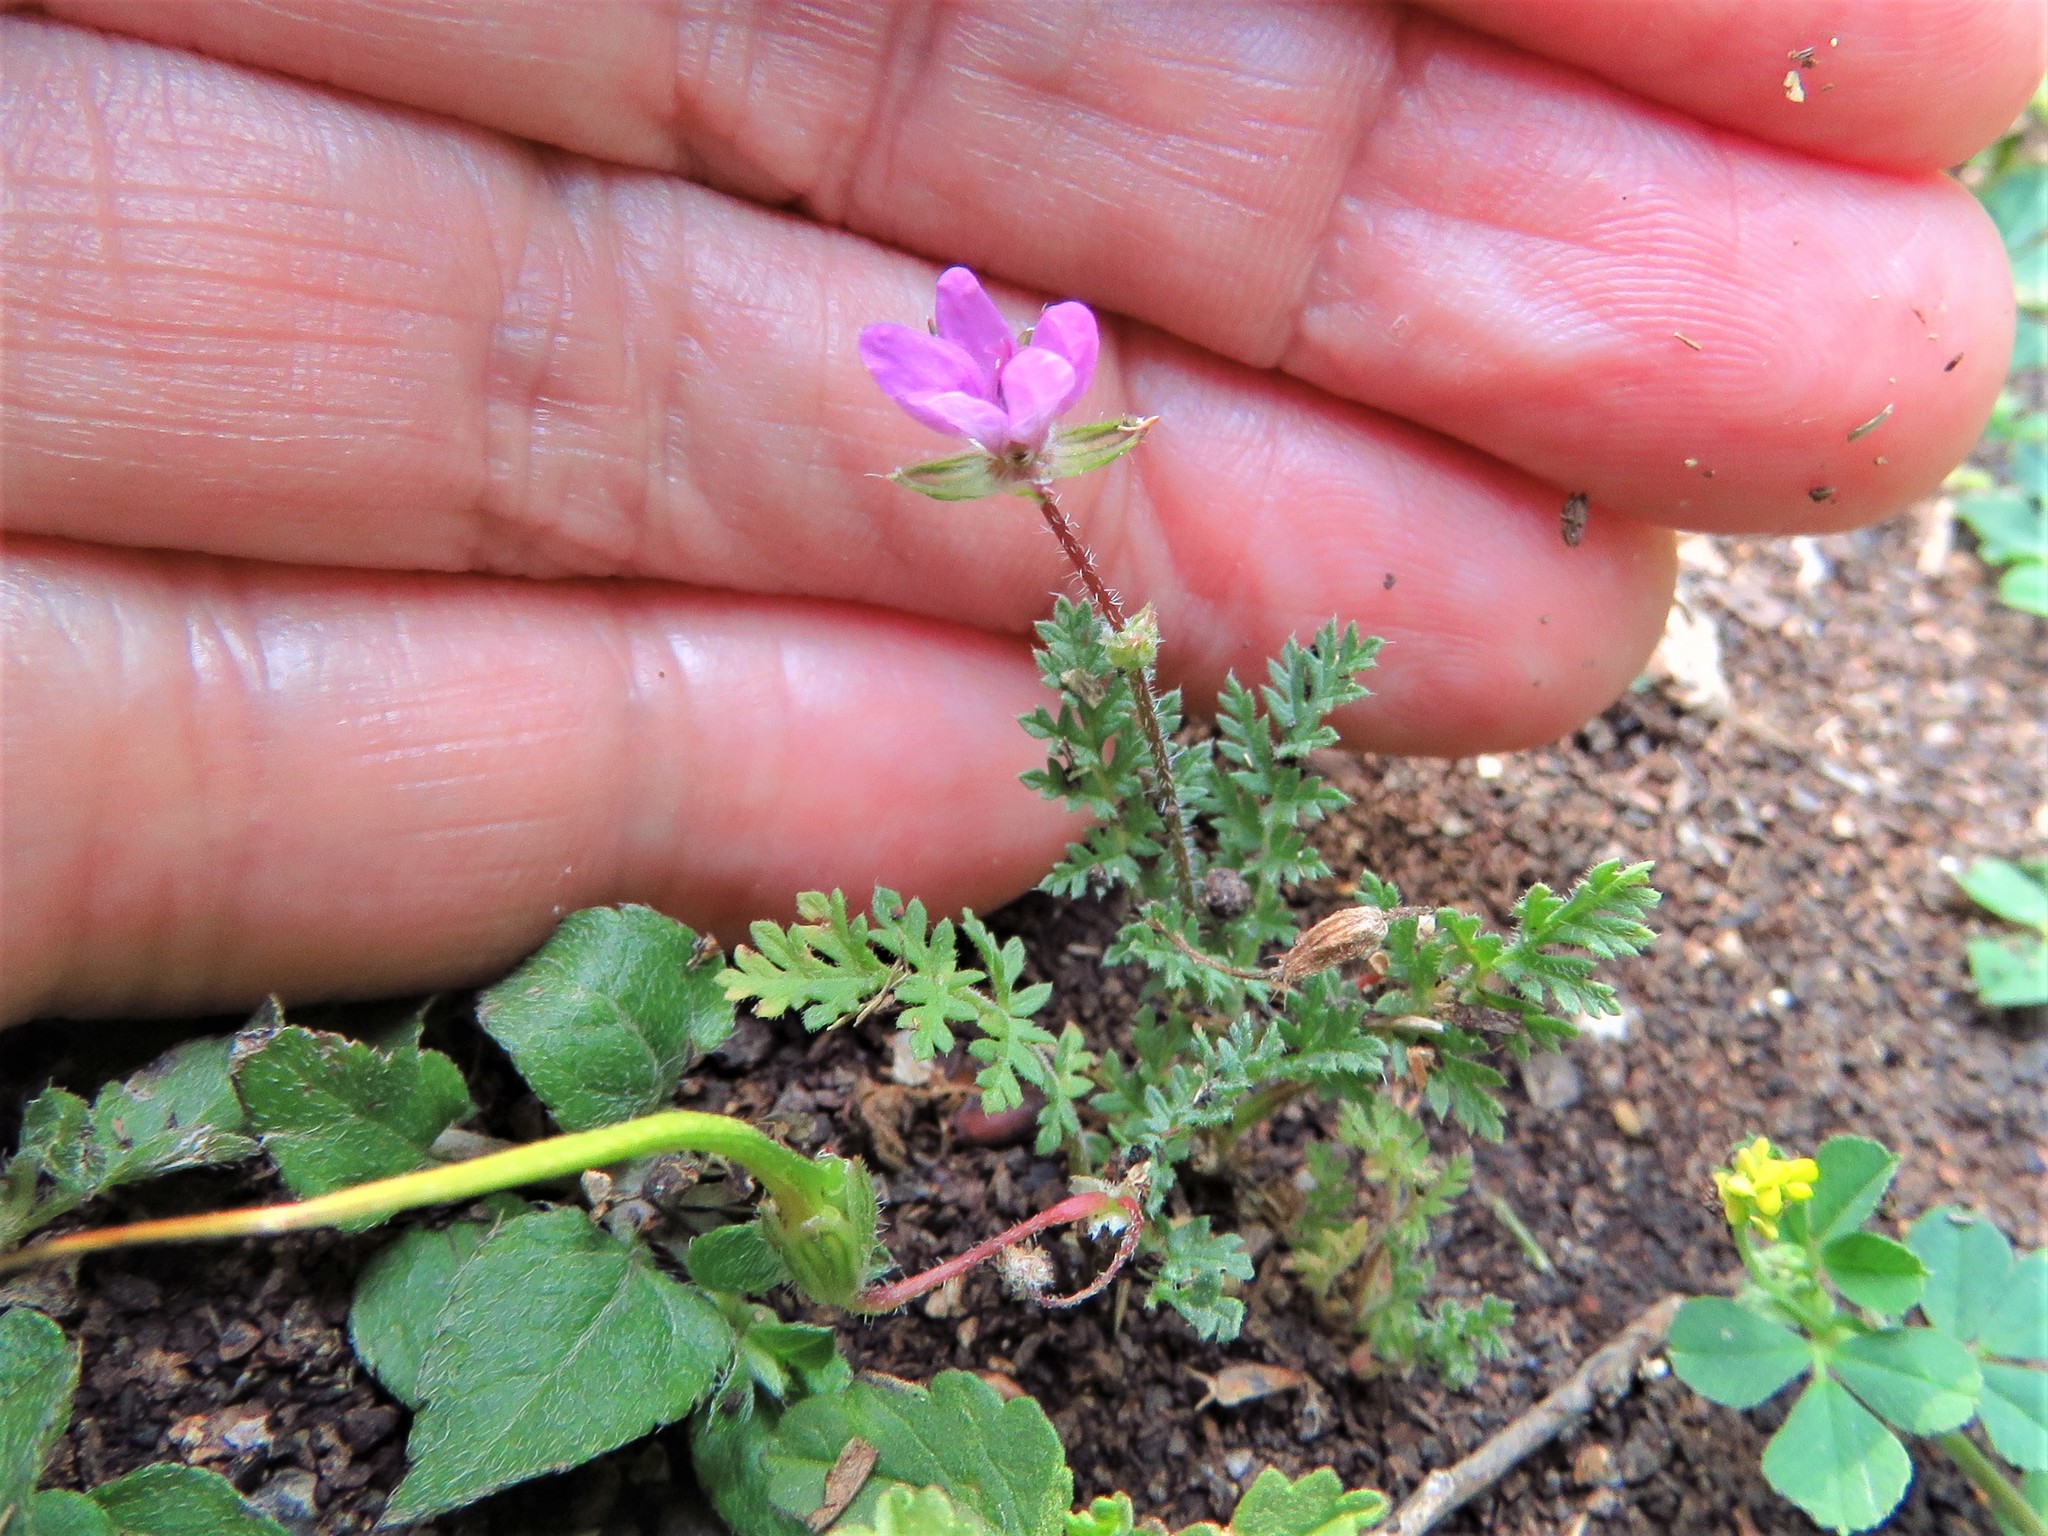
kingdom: Plantae
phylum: Tracheophyta
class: Magnoliopsida
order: Geraniales
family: Geraniaceae
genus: Erodium
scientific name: Erodium cicutarium
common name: Common stork's-bill
